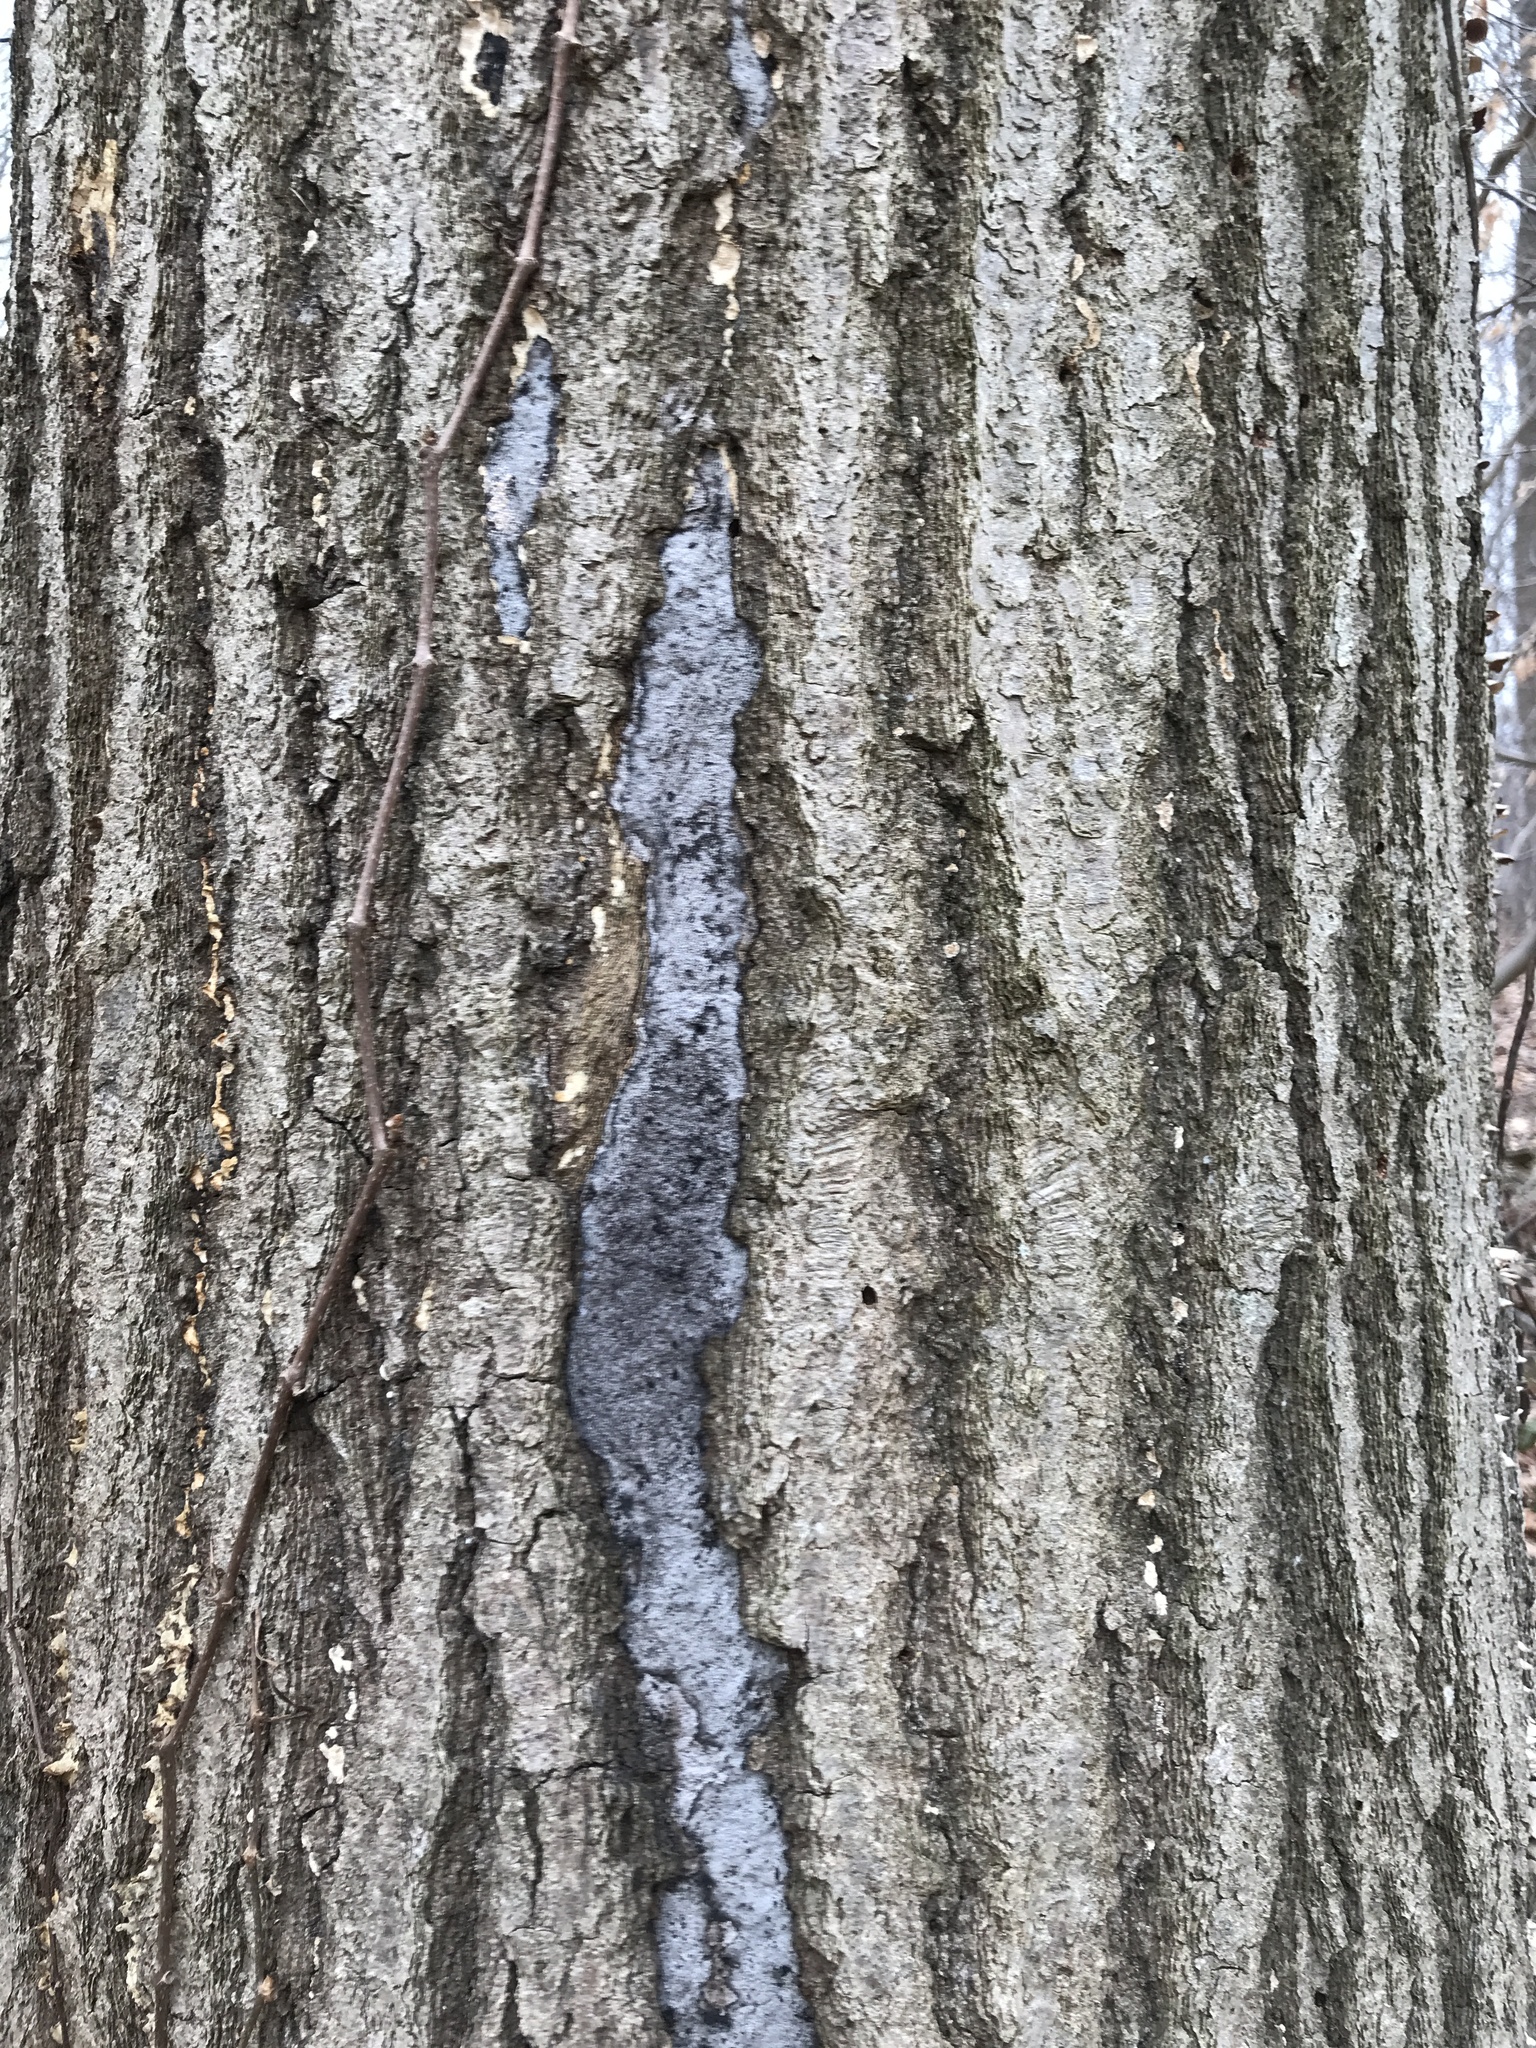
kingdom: Fungi
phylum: Ascomycota
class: Sordariomycetes
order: Xylariales
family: Graphostromataceae
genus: Biscogniauxia
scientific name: Biscogniauxia atropunctata
